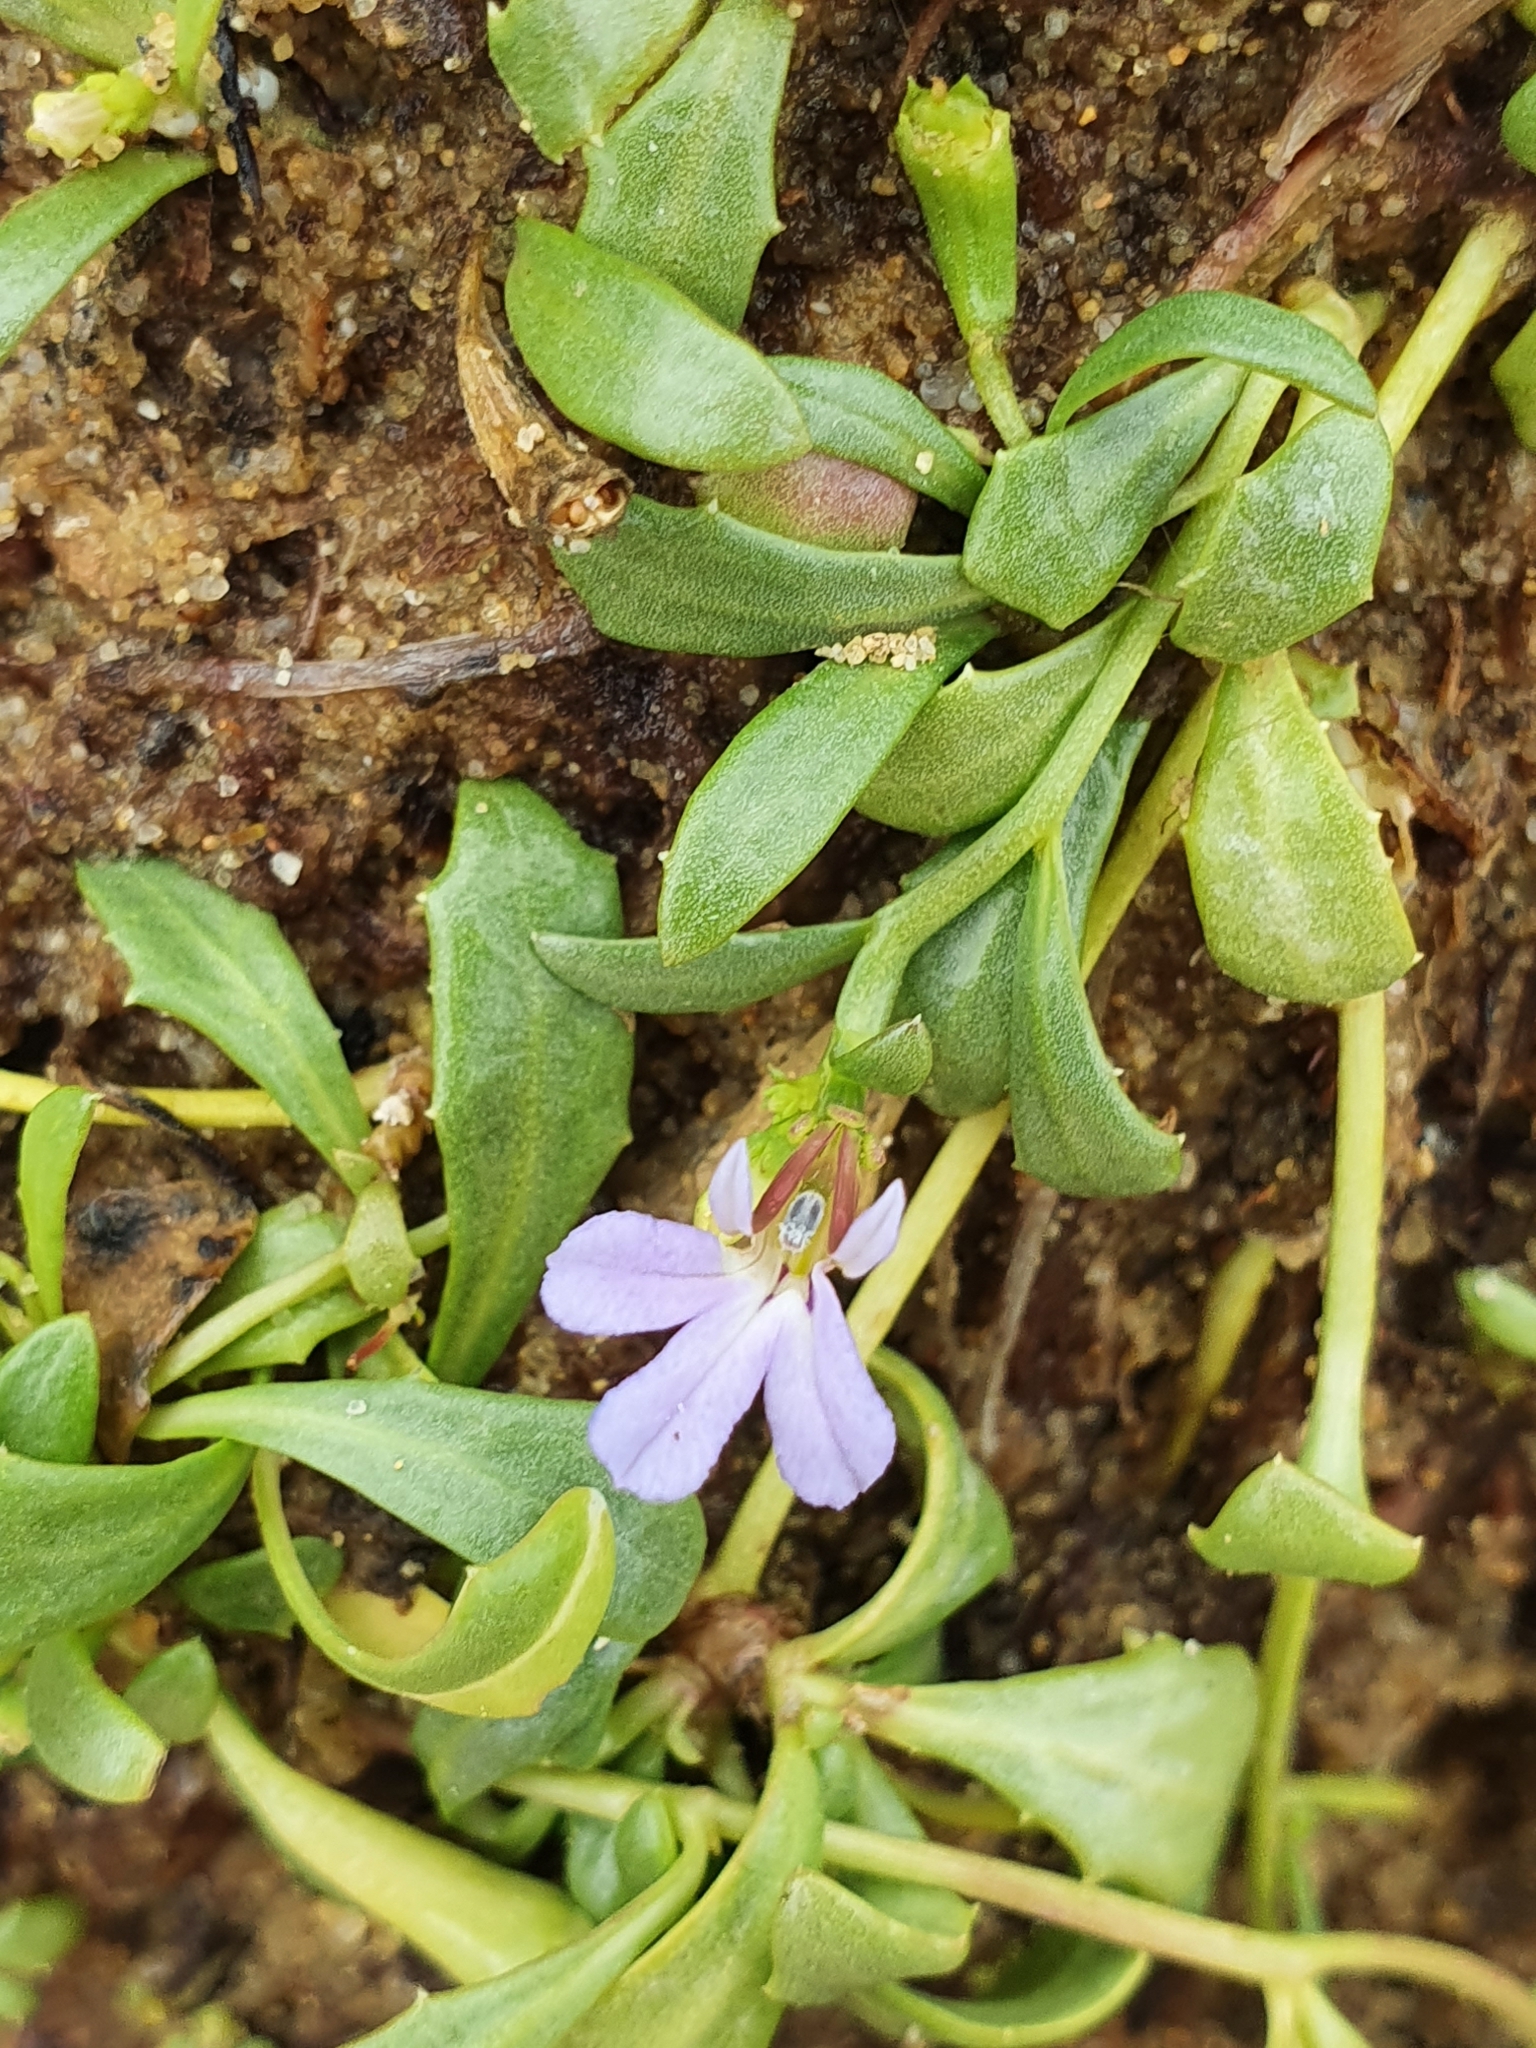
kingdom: Plantae
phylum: Tracheophyta
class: Magnoliopsida
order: Asterales
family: Campanulaceae
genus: Lobelia
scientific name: Lobelia anceps
